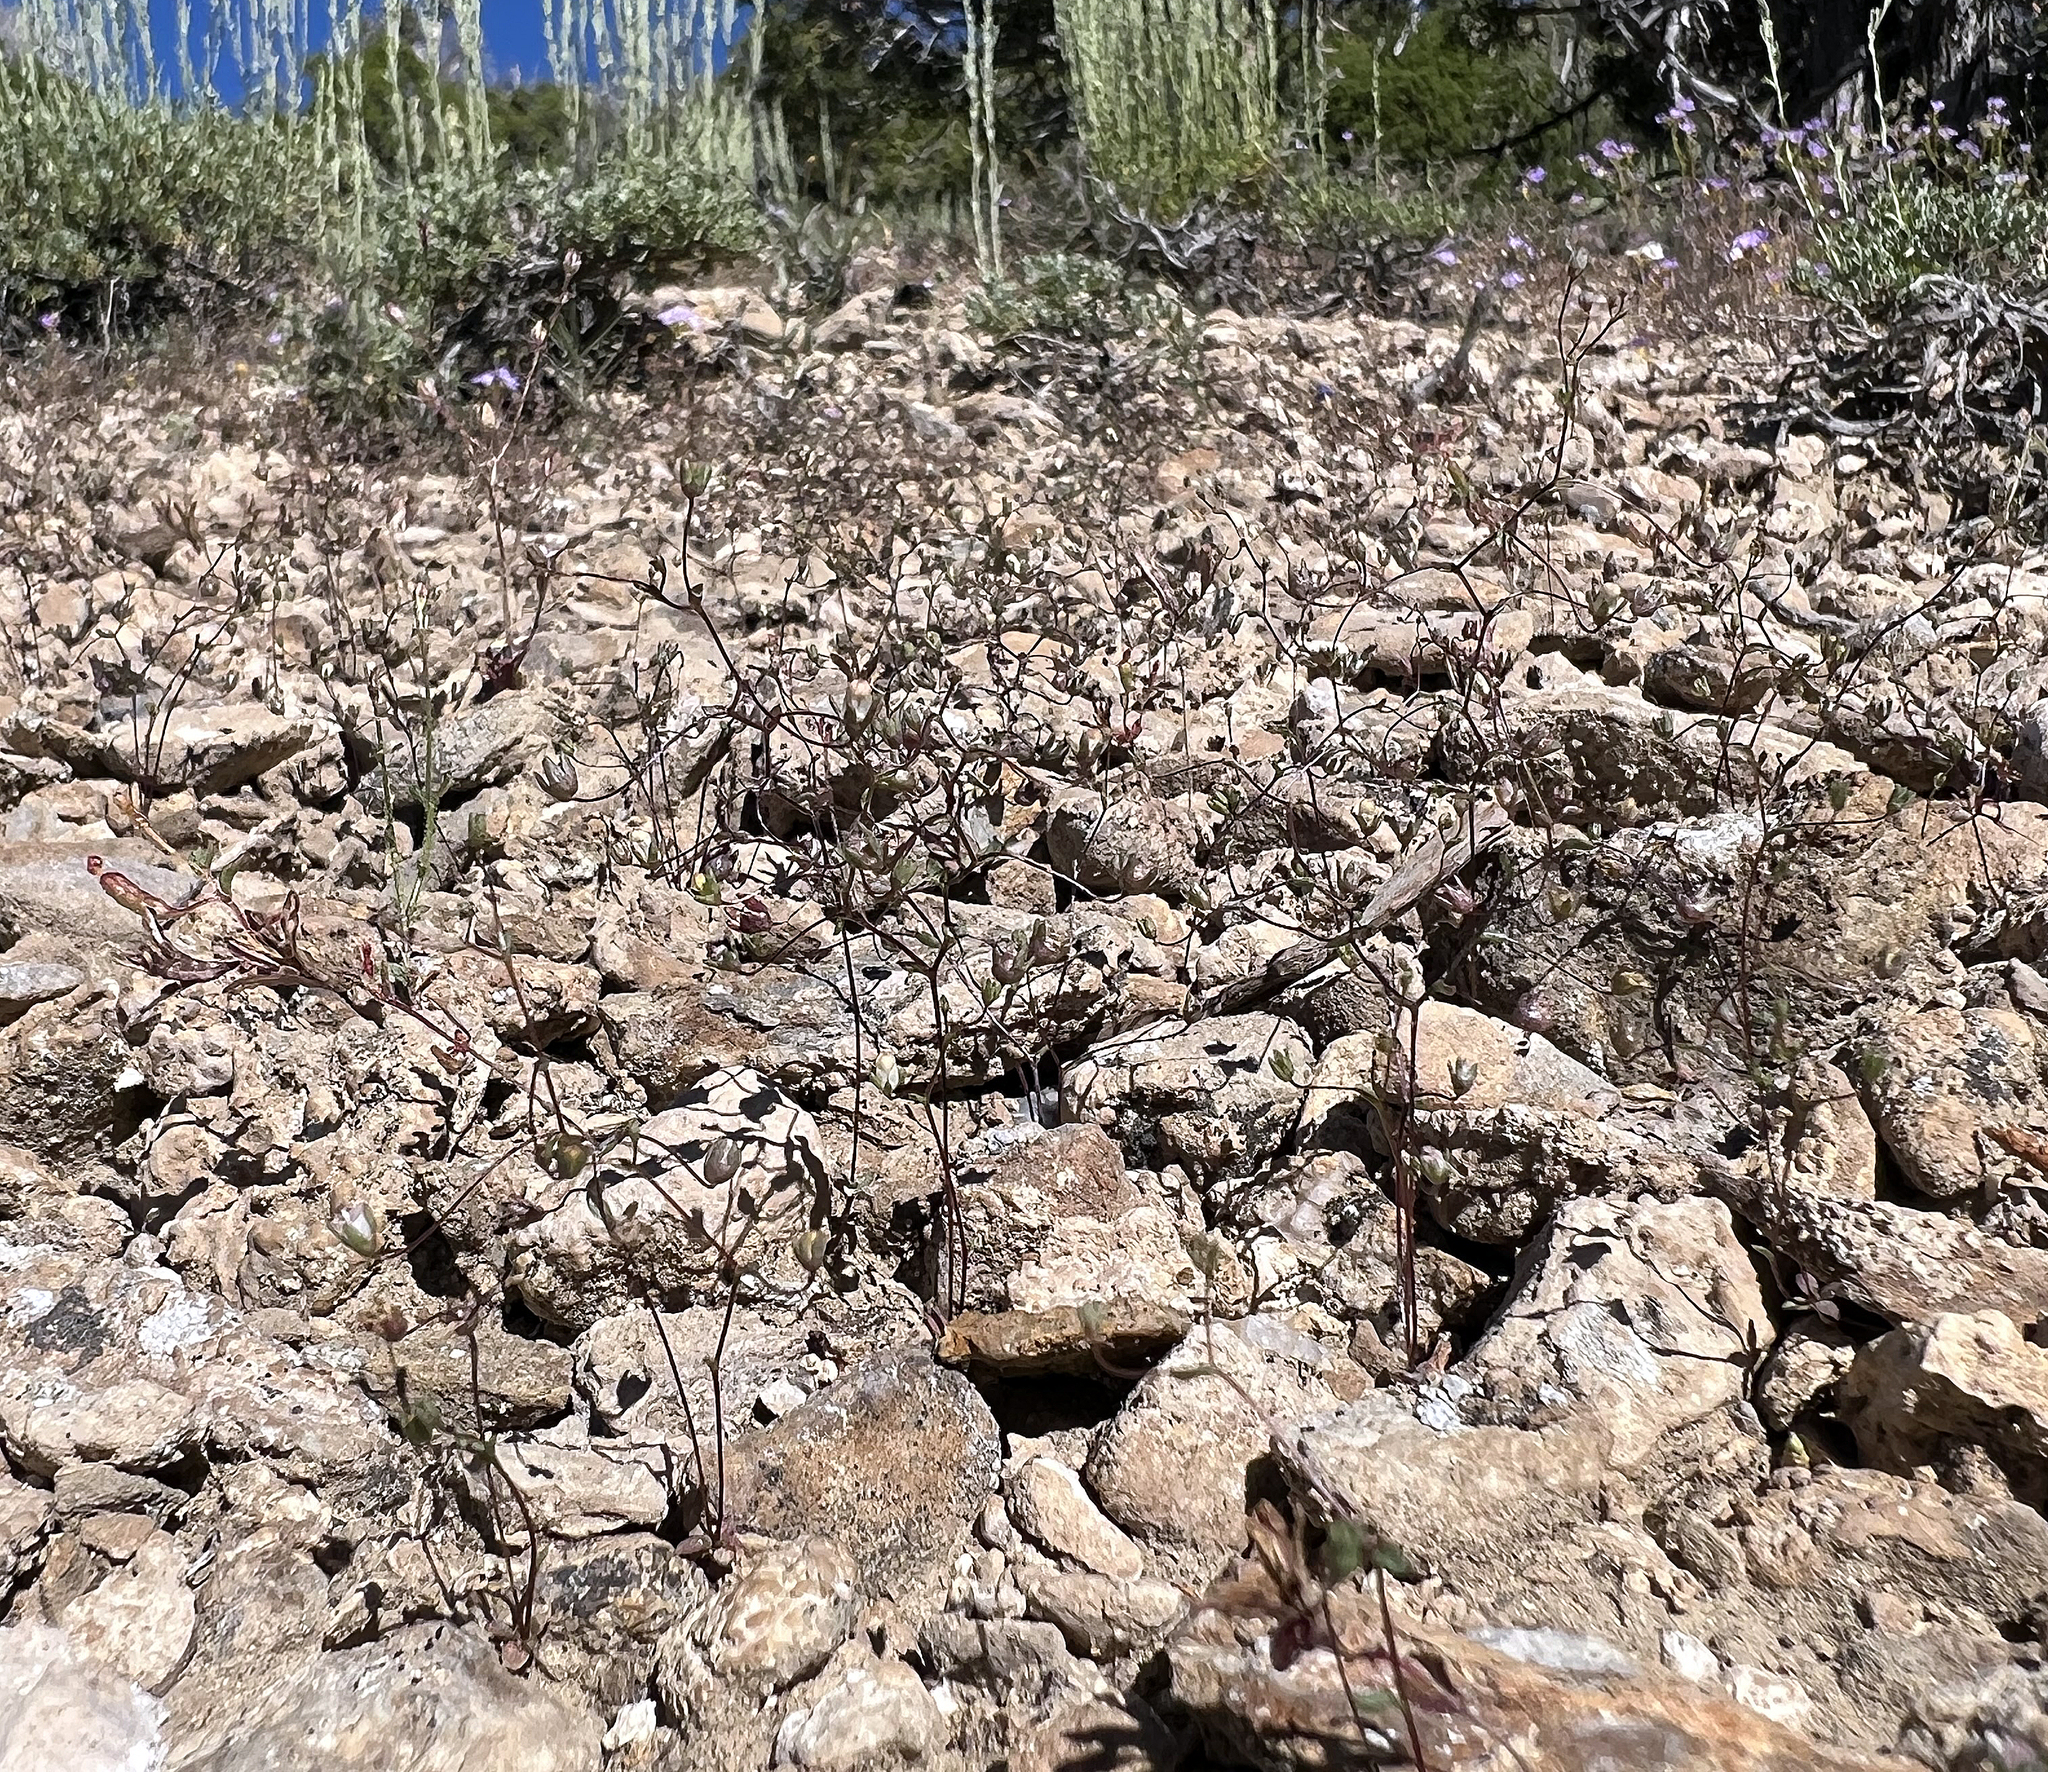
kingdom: Plantae
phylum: Tracheophyta
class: Magnoliopsida
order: Asterales
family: Campanulaceae
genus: Nemacladus
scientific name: Nemacladus inyoensis
